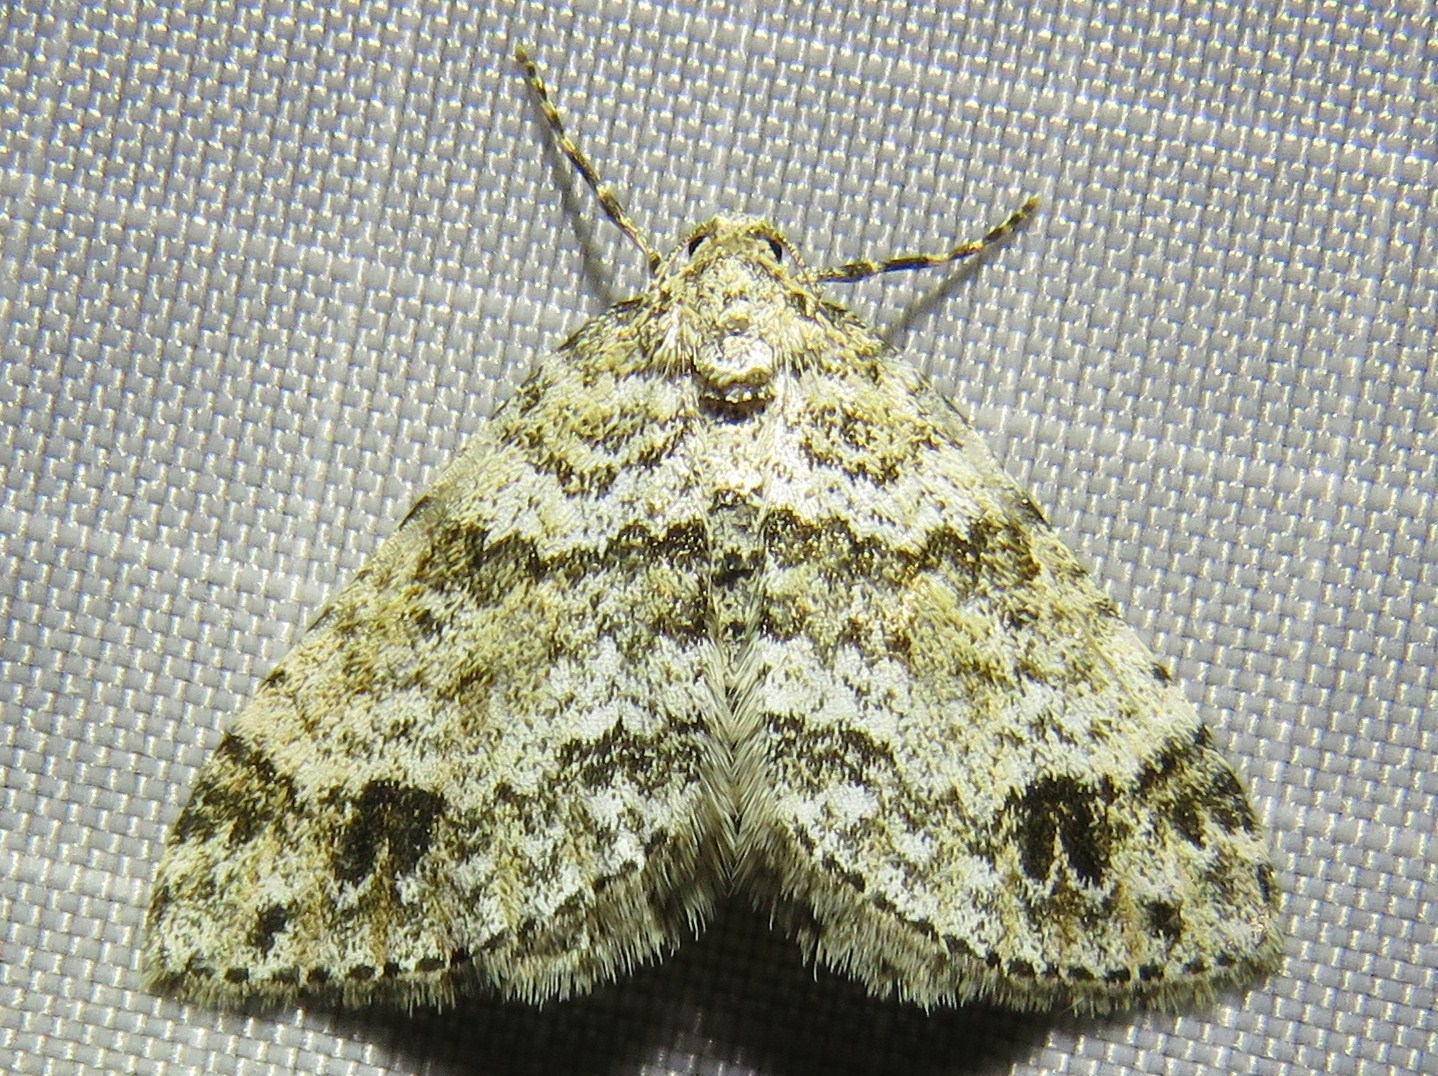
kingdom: Animalia
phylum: Arthropoda
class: Insecta
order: Lepidoptera
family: Geometridae
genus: Perizoma
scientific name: Perizoma didymata
